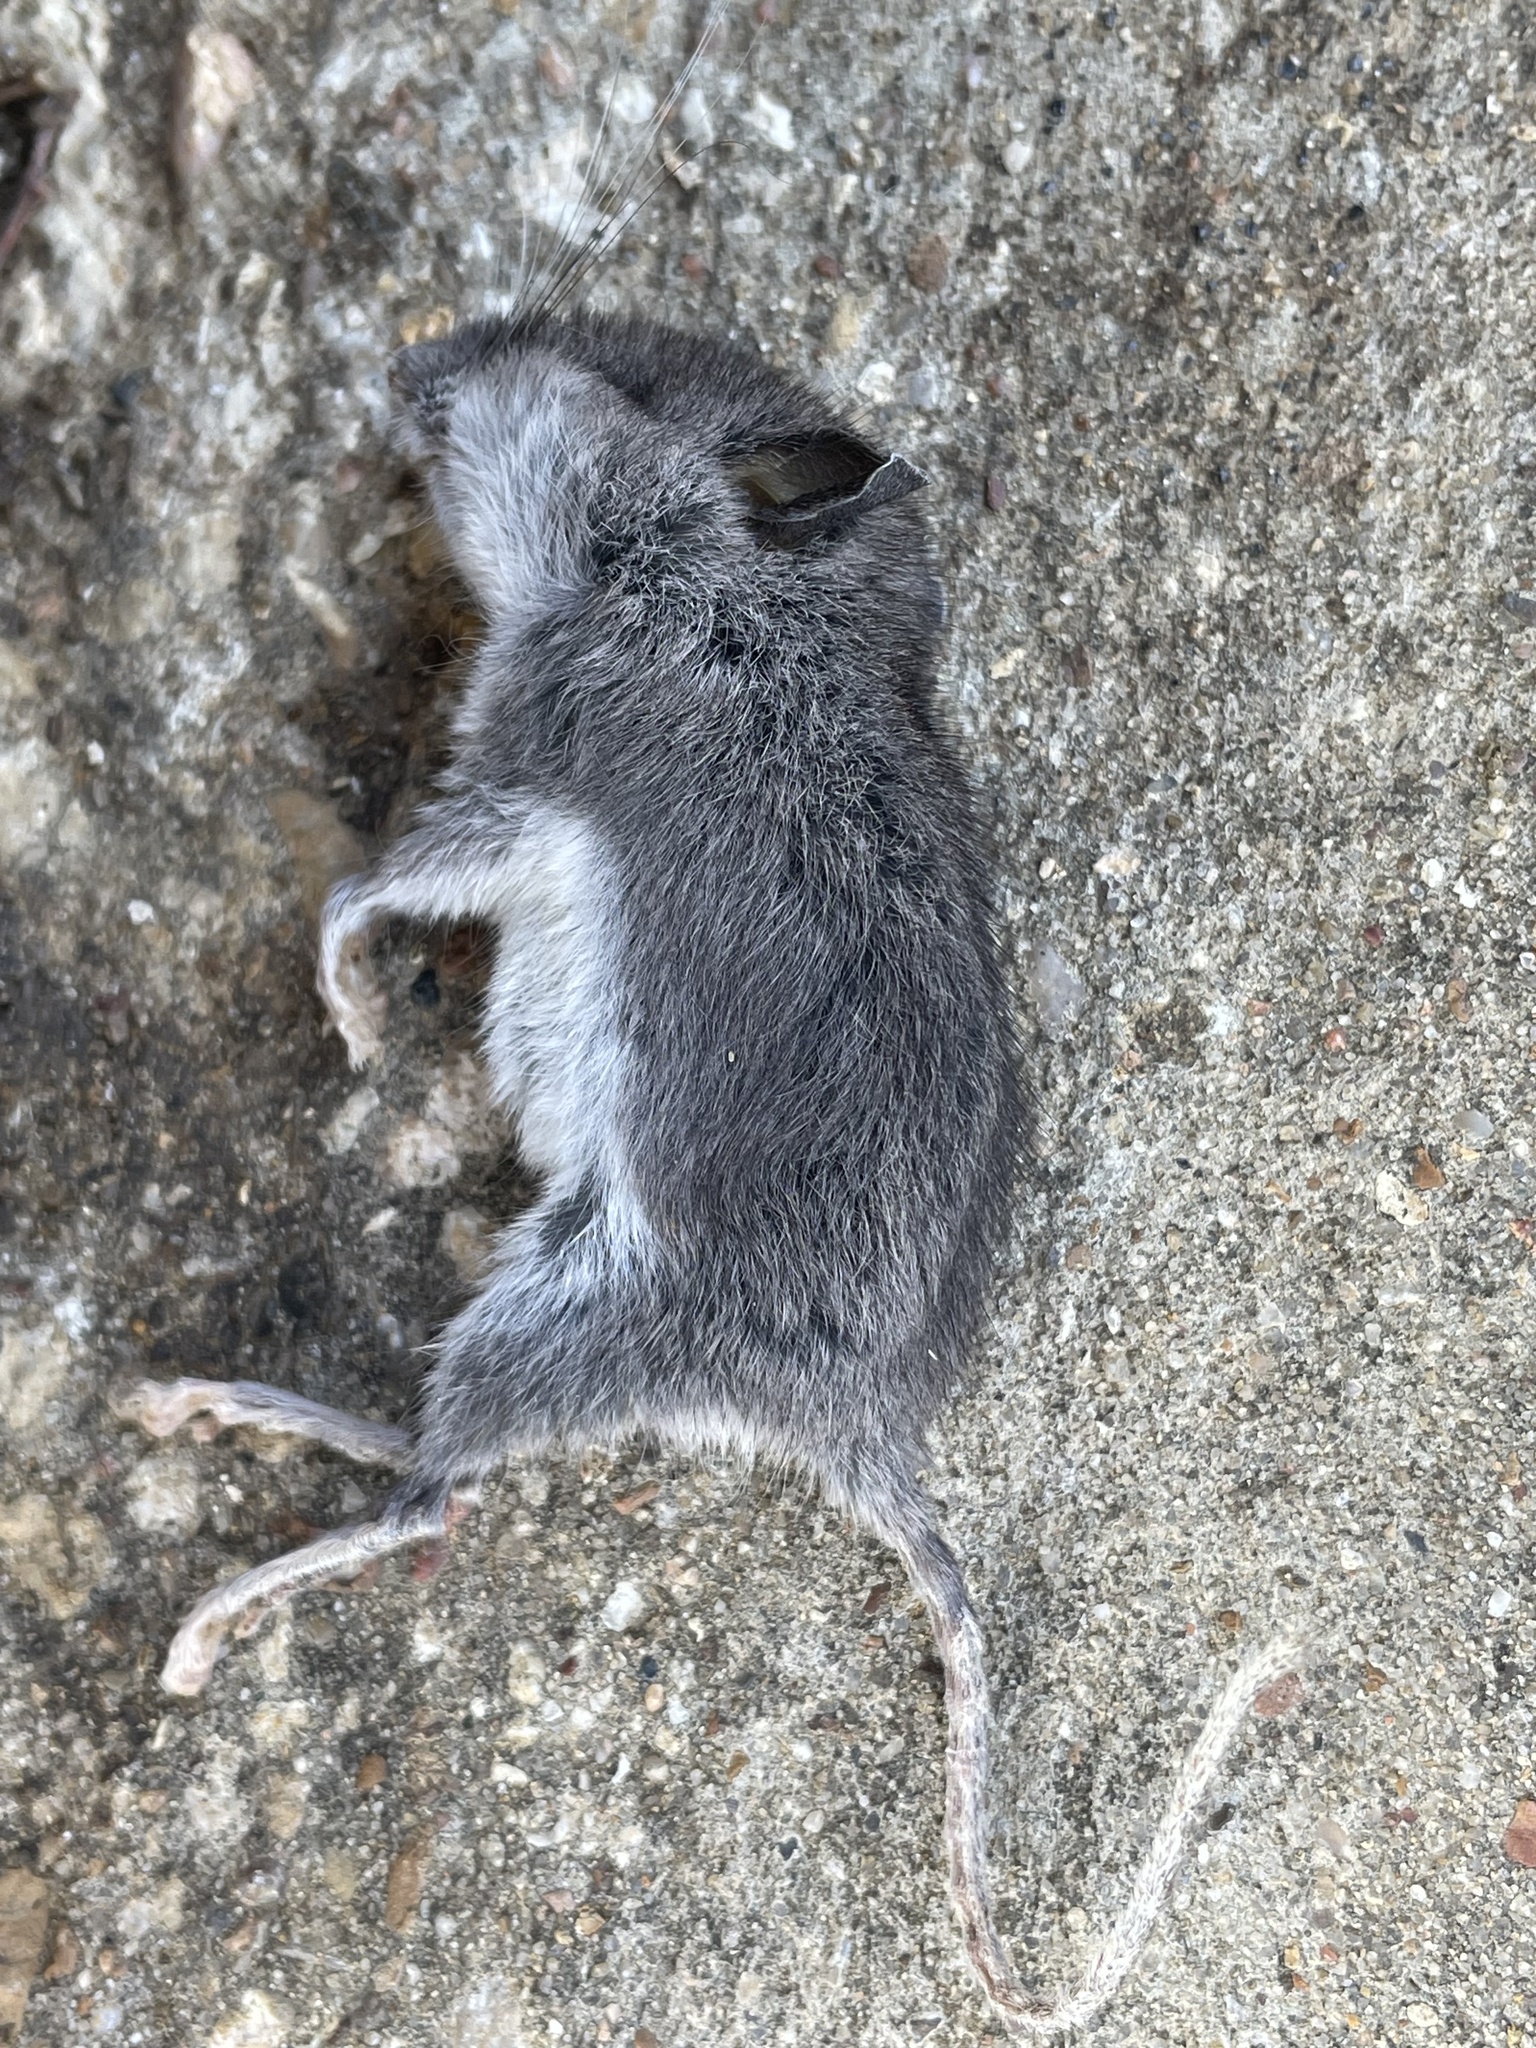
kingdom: Animalia
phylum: Chordata
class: Mammalia
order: Rodentia
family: Muridae
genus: Mus
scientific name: Mus musculus
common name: House mouse
